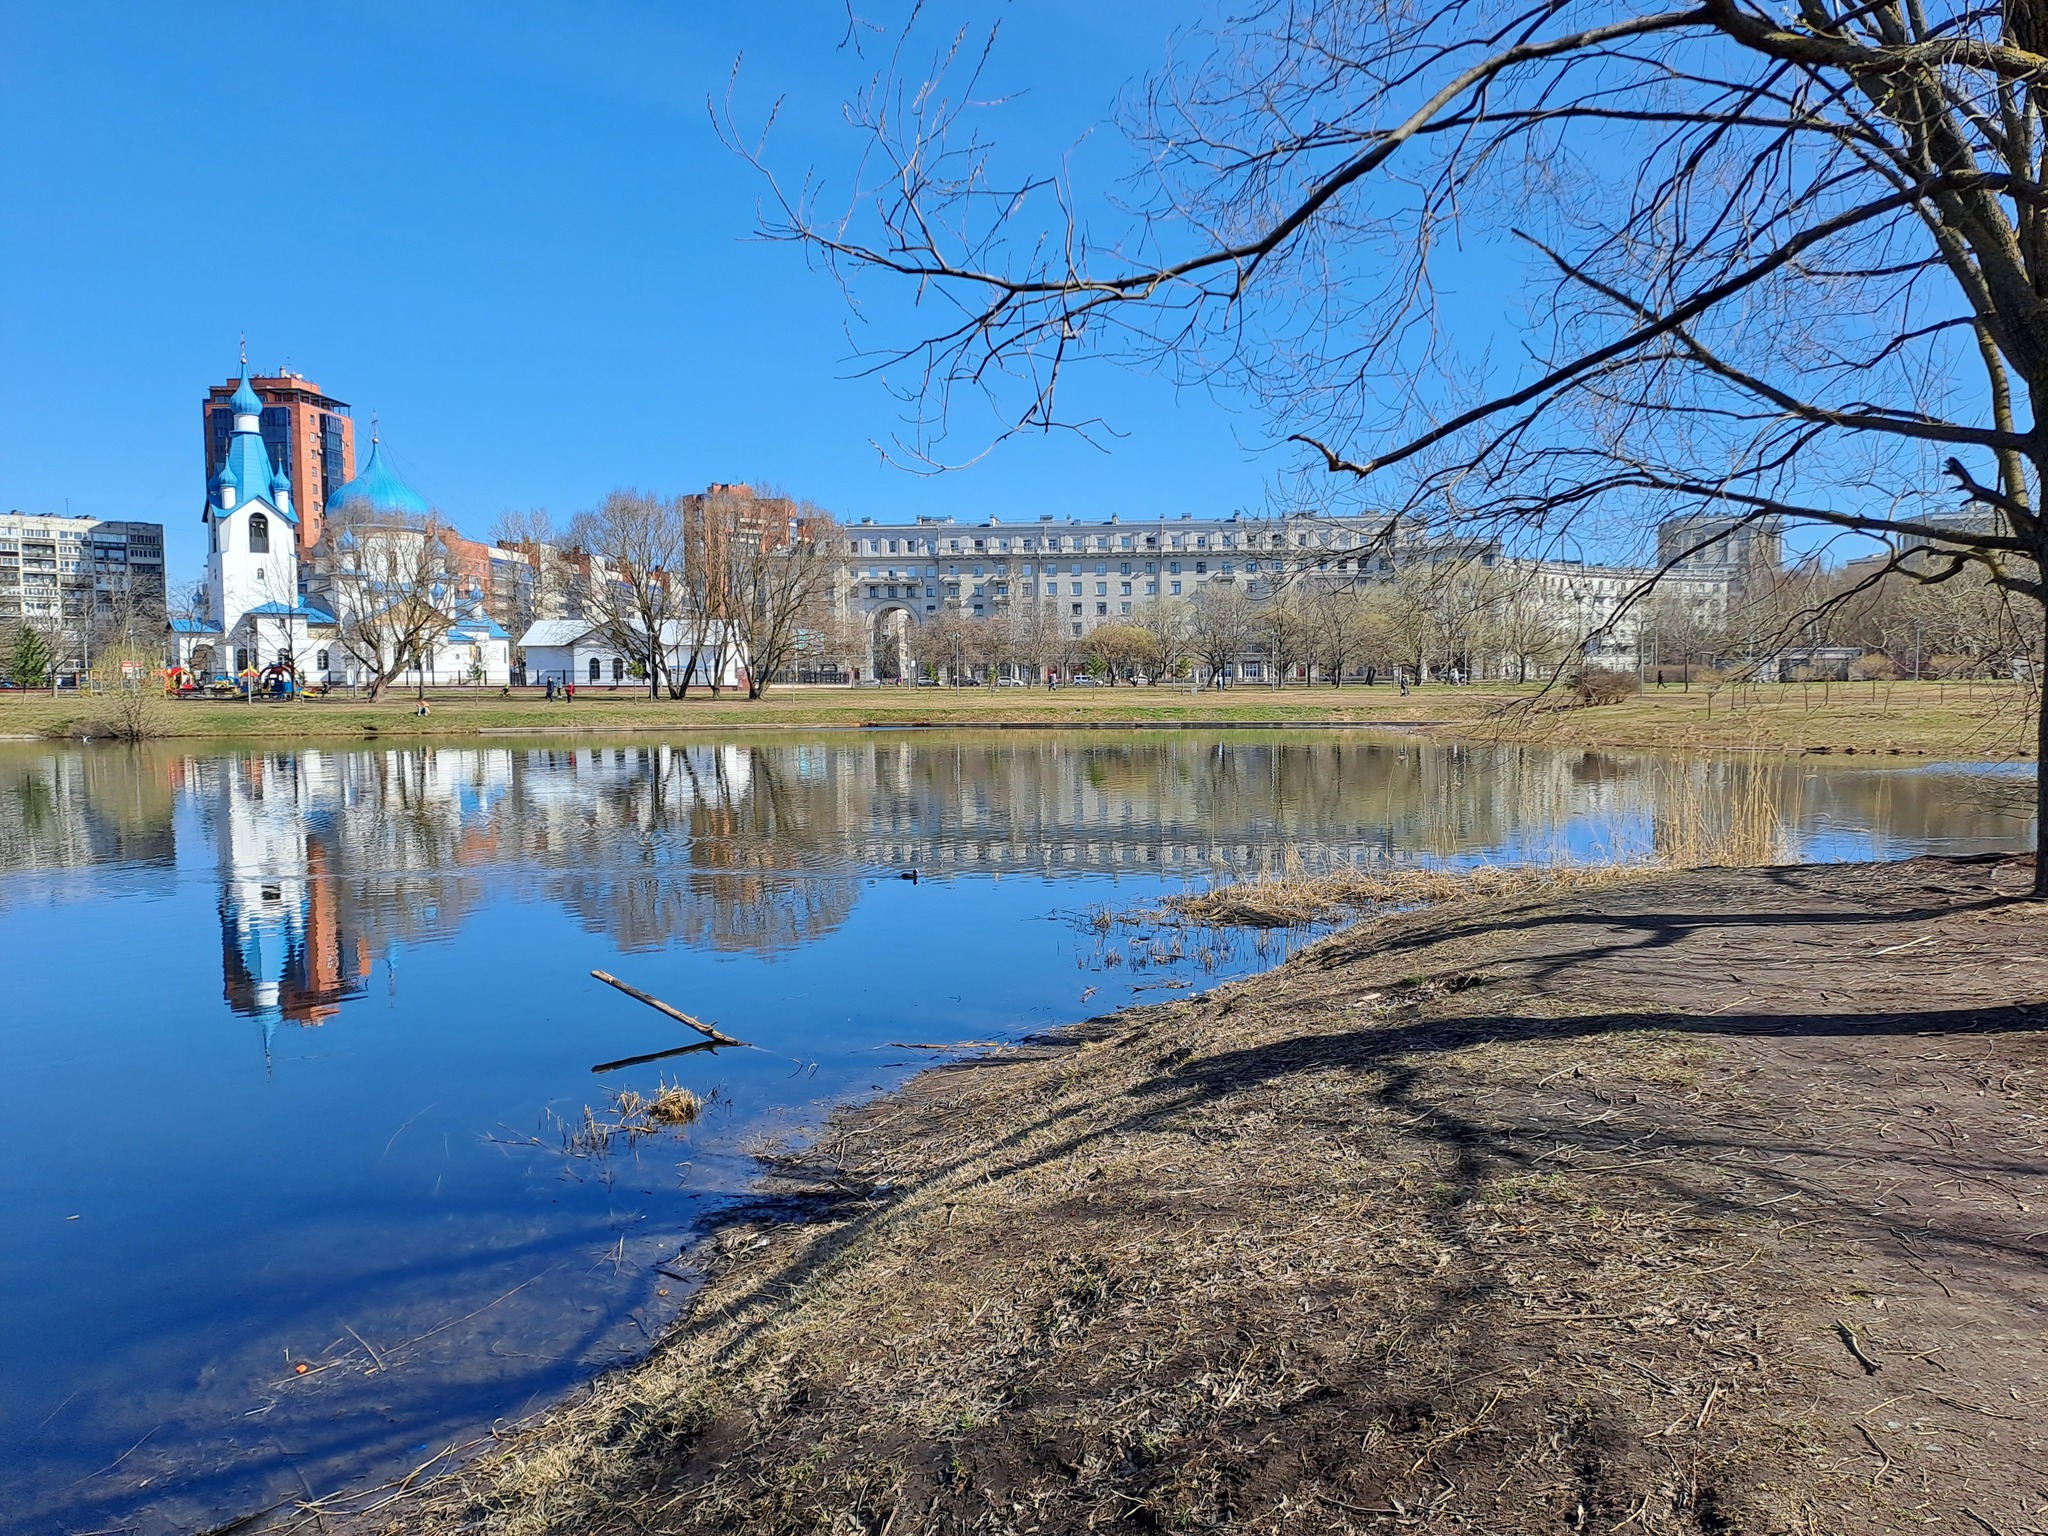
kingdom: Protozoa
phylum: Choanozoa
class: Choanoflagellatea
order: Choanoflagellida
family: Codosigidae
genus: Codosiga
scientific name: Codosiga botrytis
